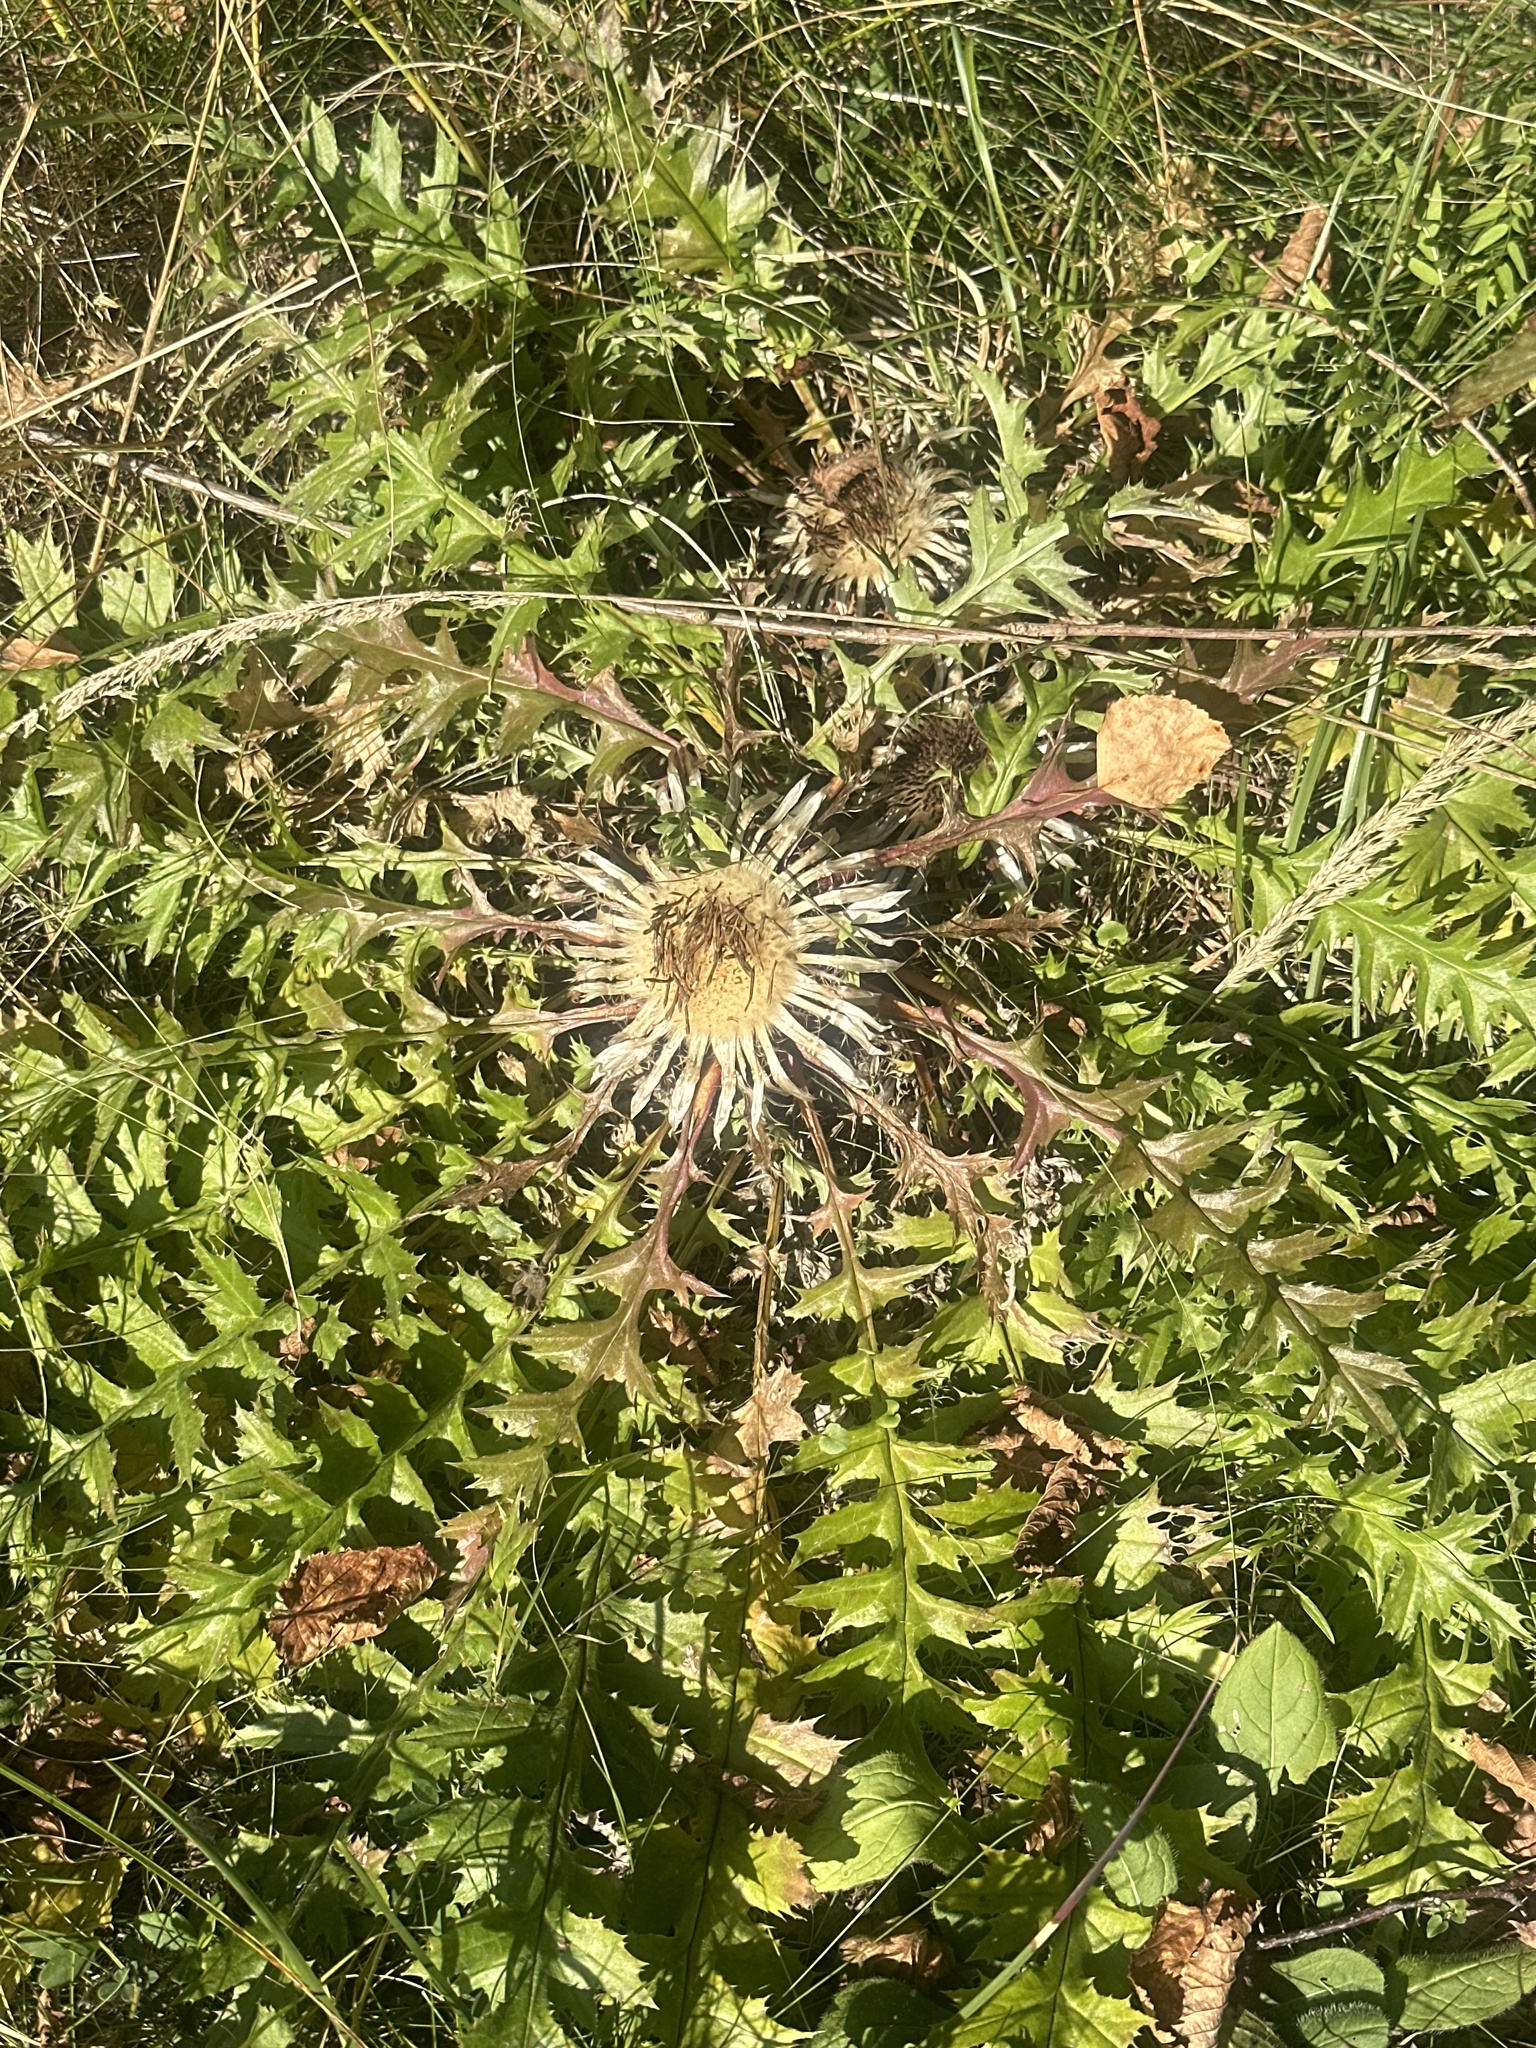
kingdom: Plantae
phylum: Tracheophyta
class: Magnoliopsida
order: Asterales
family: Asteraceae
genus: Carlina
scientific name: Carlina acaulis
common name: Stemless carline thistle
